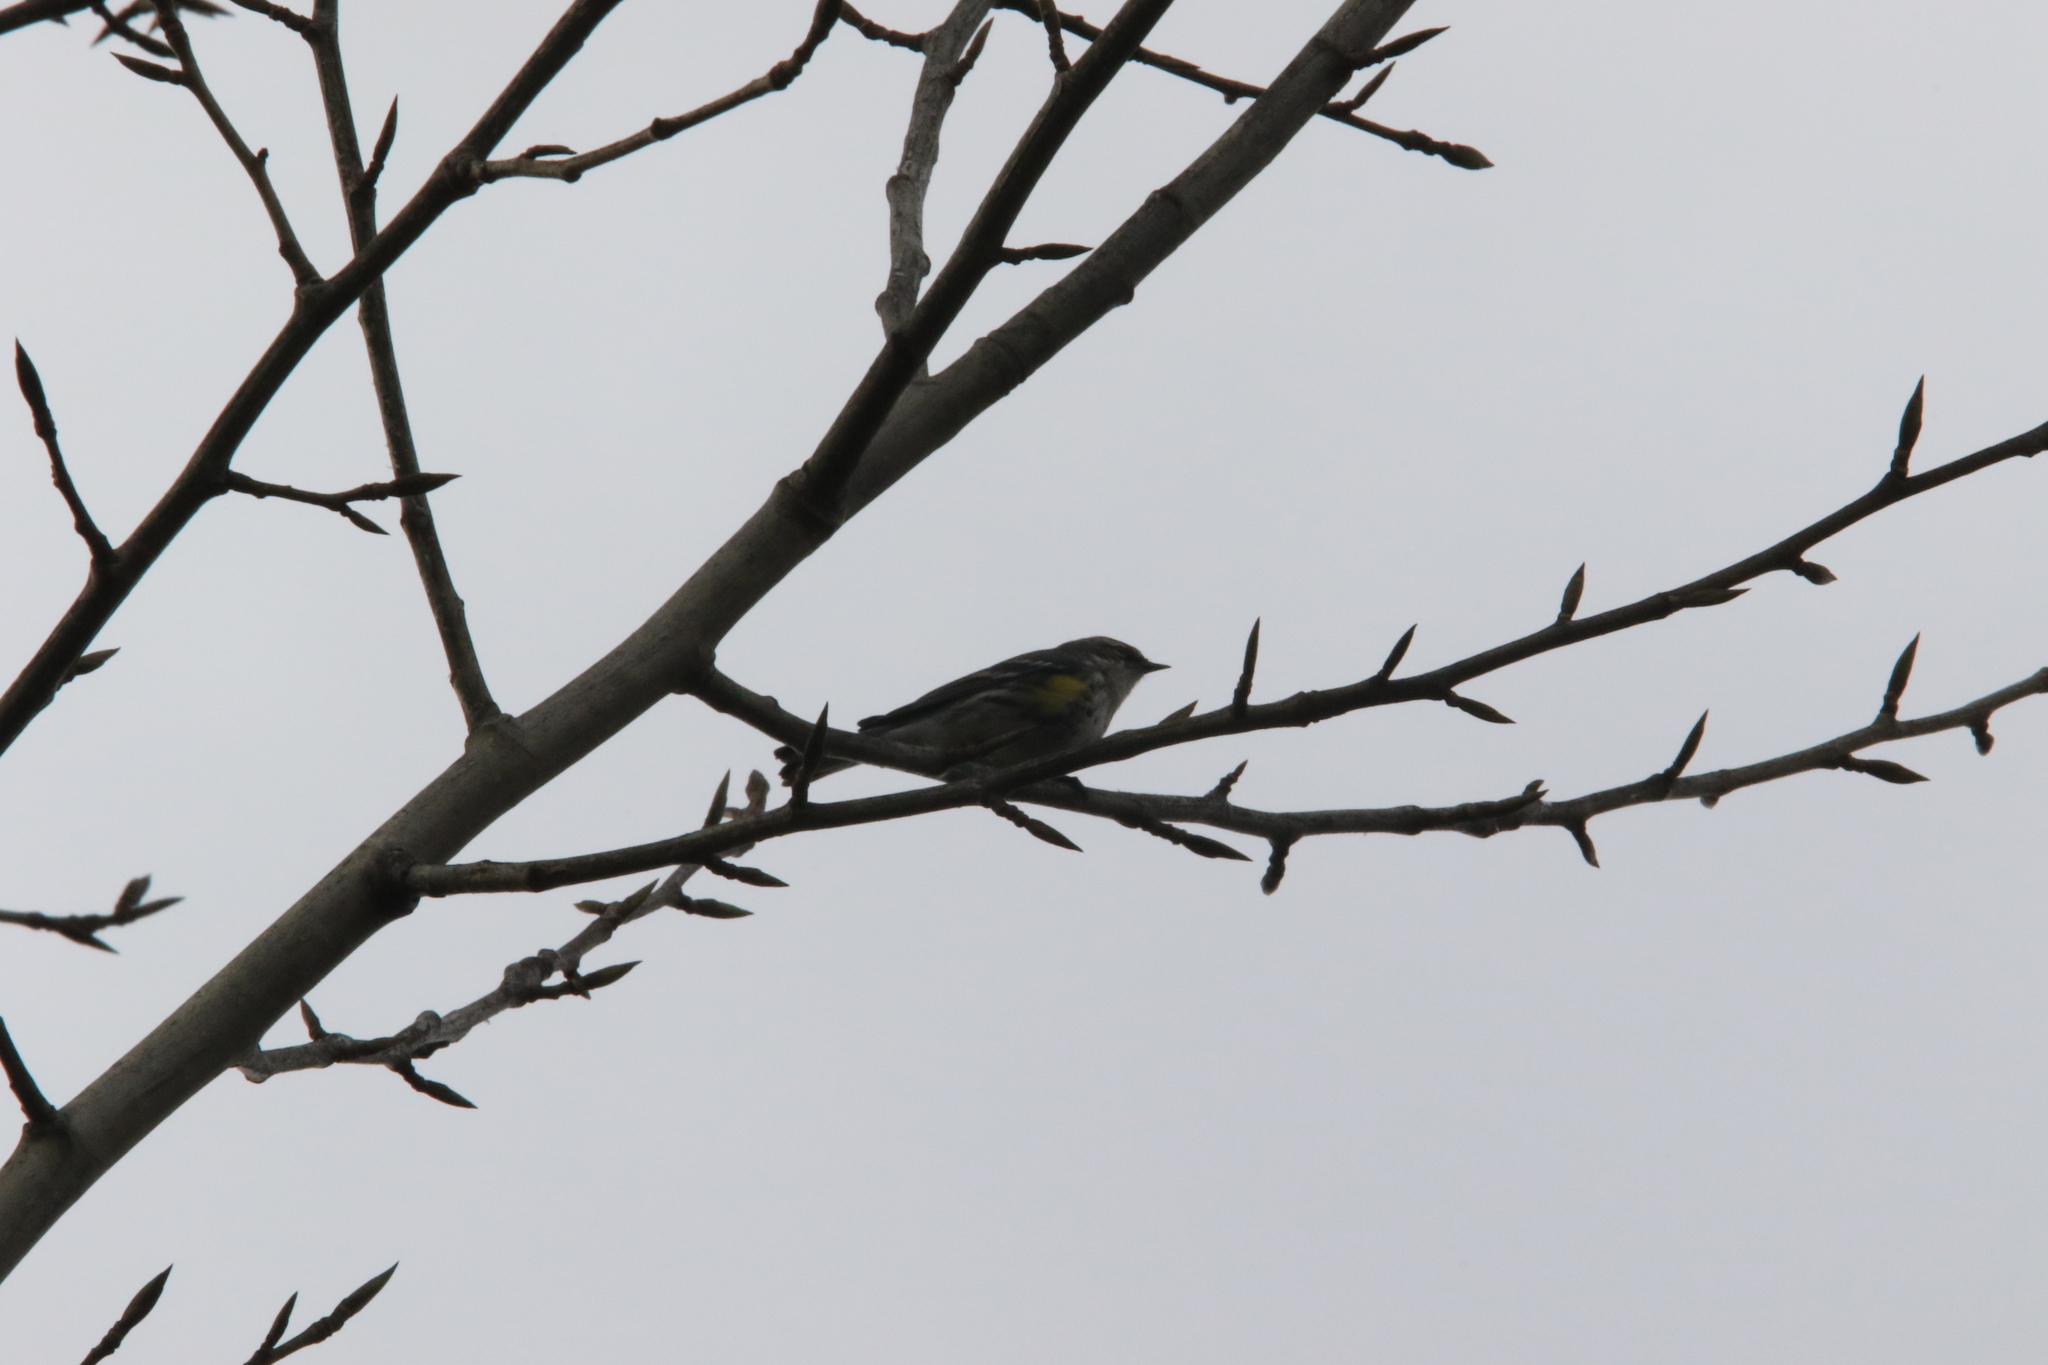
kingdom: Animalia
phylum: Chordata
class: Aves
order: Passeriformes
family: Parulidae
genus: Setophaga
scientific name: Setophaga coronata
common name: Myrtle warbler
